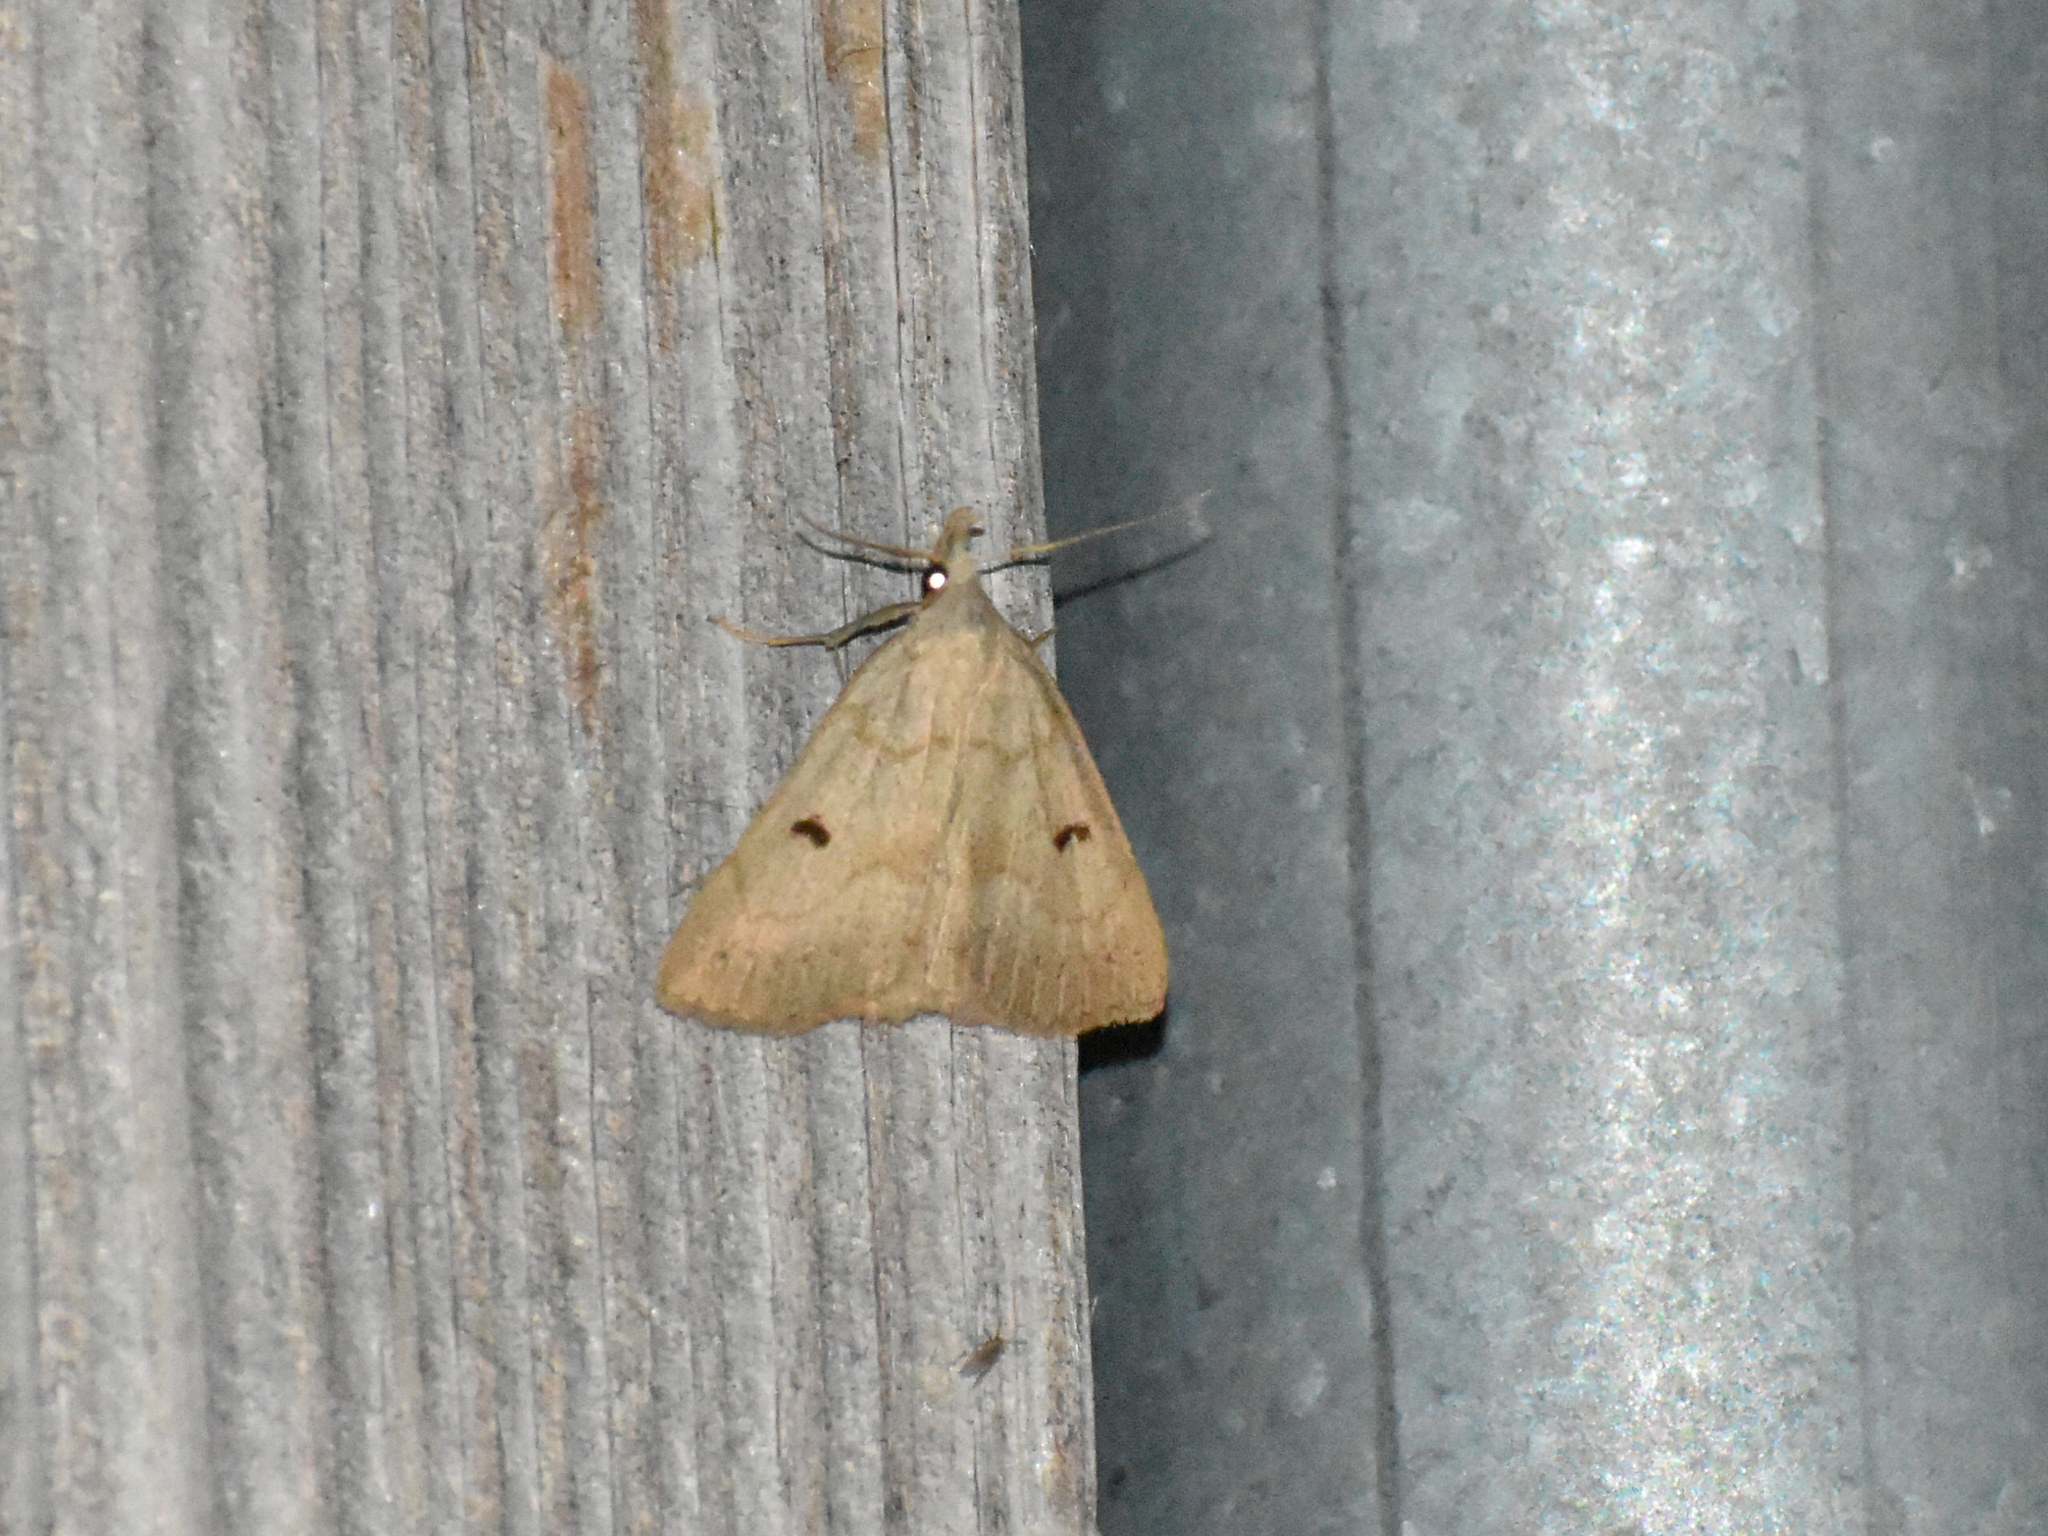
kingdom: Animalia
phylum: Arthropoda
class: Insecta
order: Lepidoptera
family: Erebidae
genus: Macrochilo
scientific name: Macrochilo morbidalis
